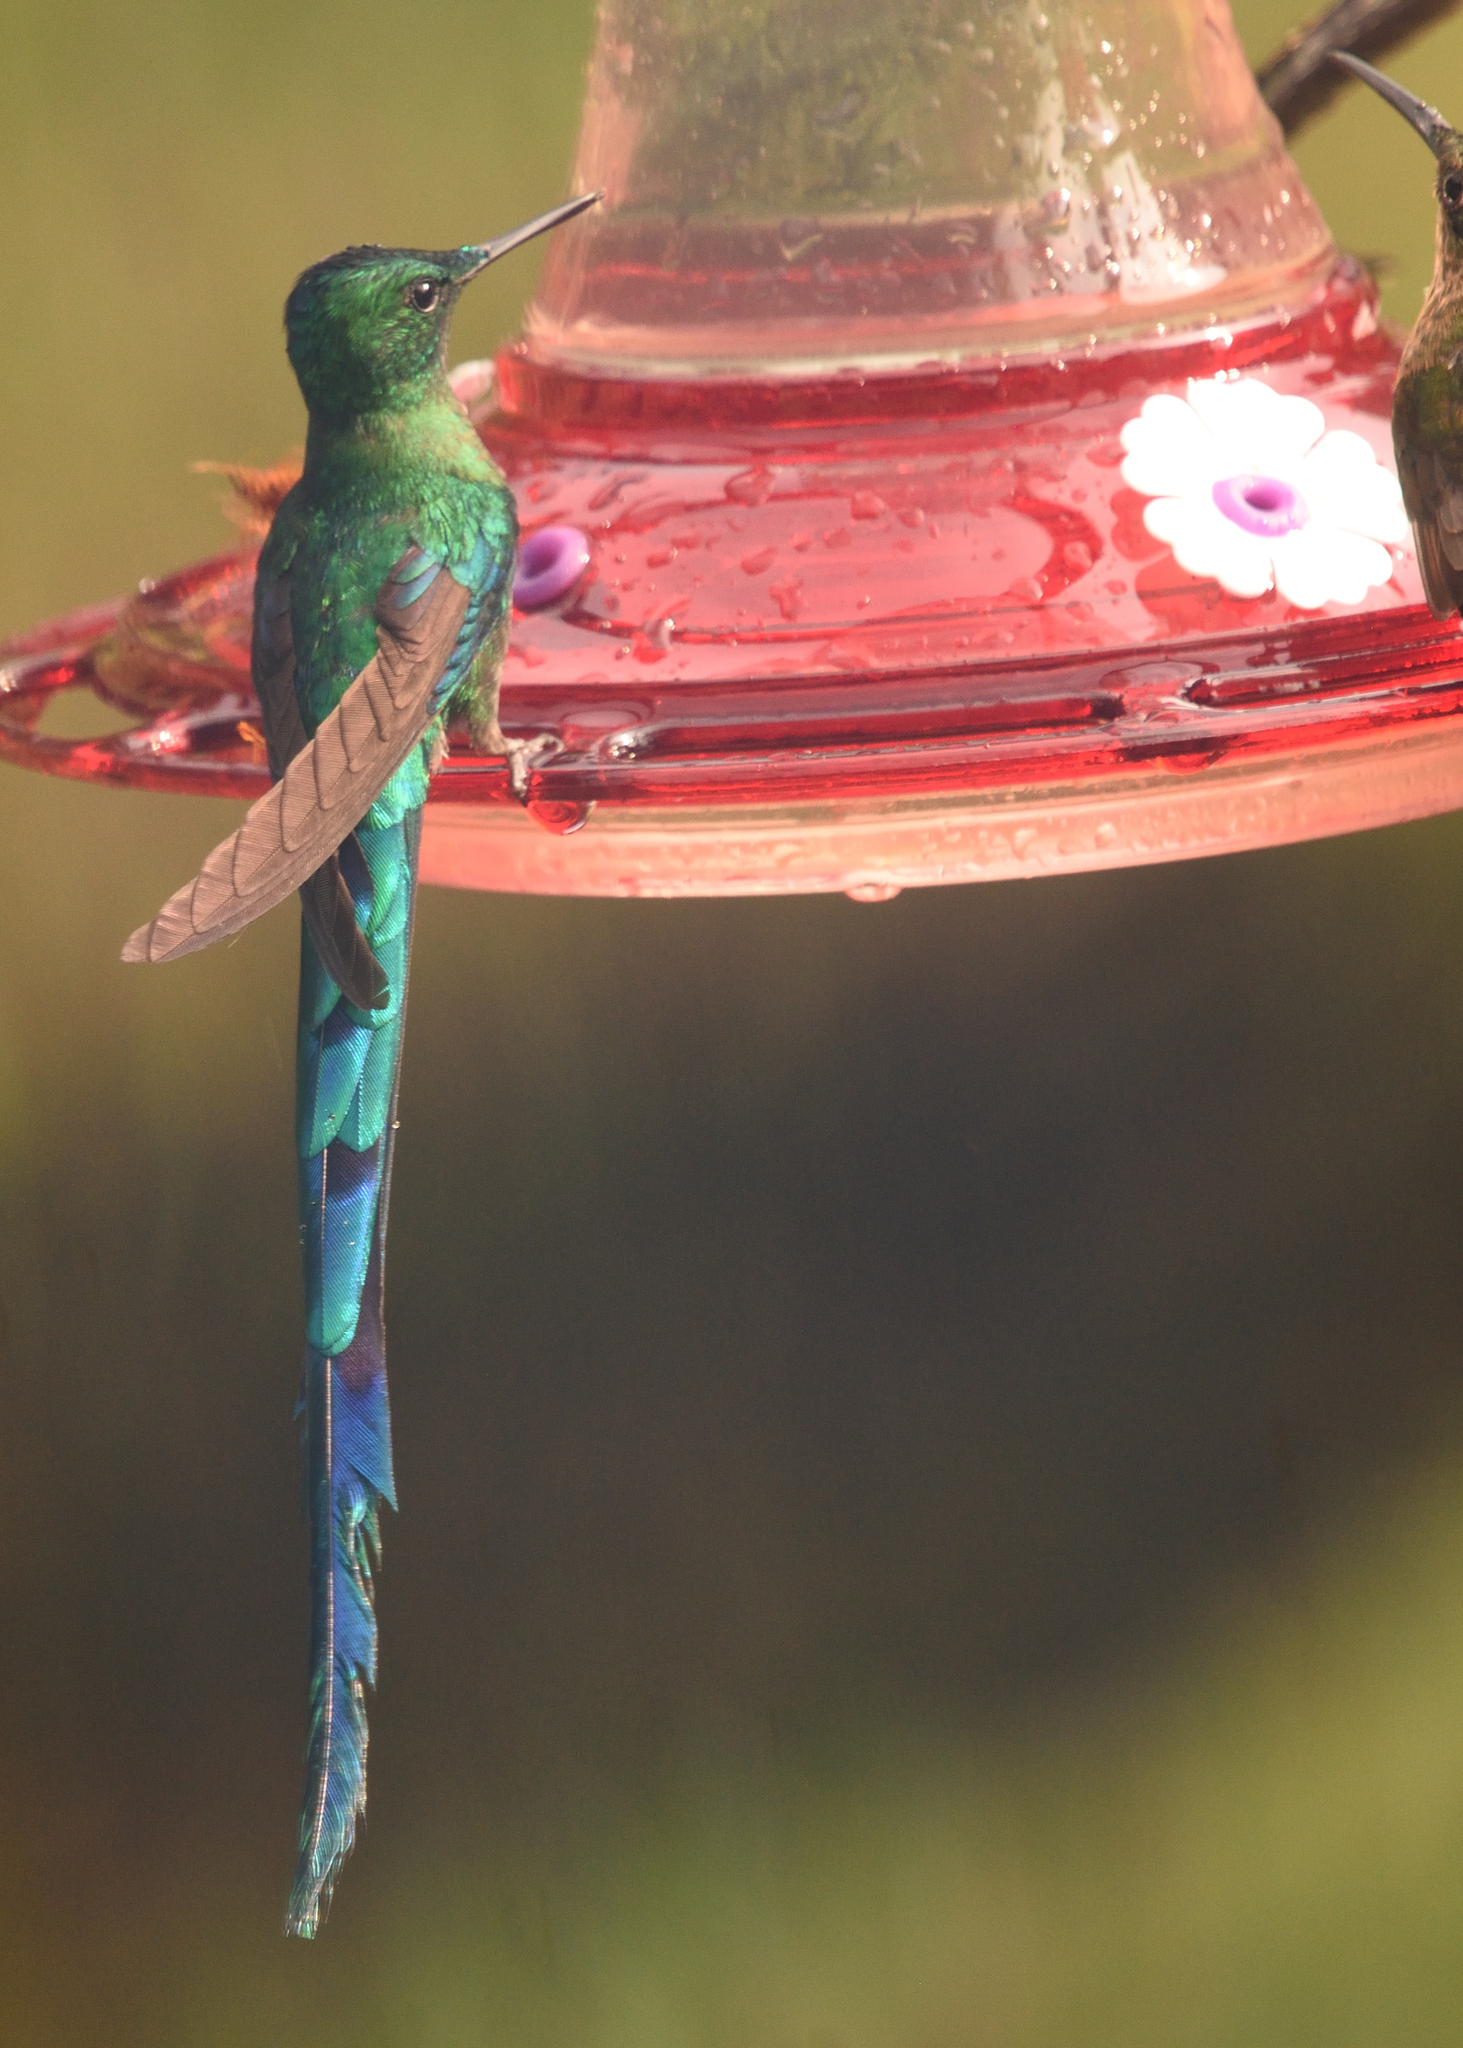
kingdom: Animalia
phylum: Chordata
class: Aves
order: Apodiformes
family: Trochilidae
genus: Aglaiocercus
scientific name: Aglaiocercus kingii
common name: Long-tailed sylph
